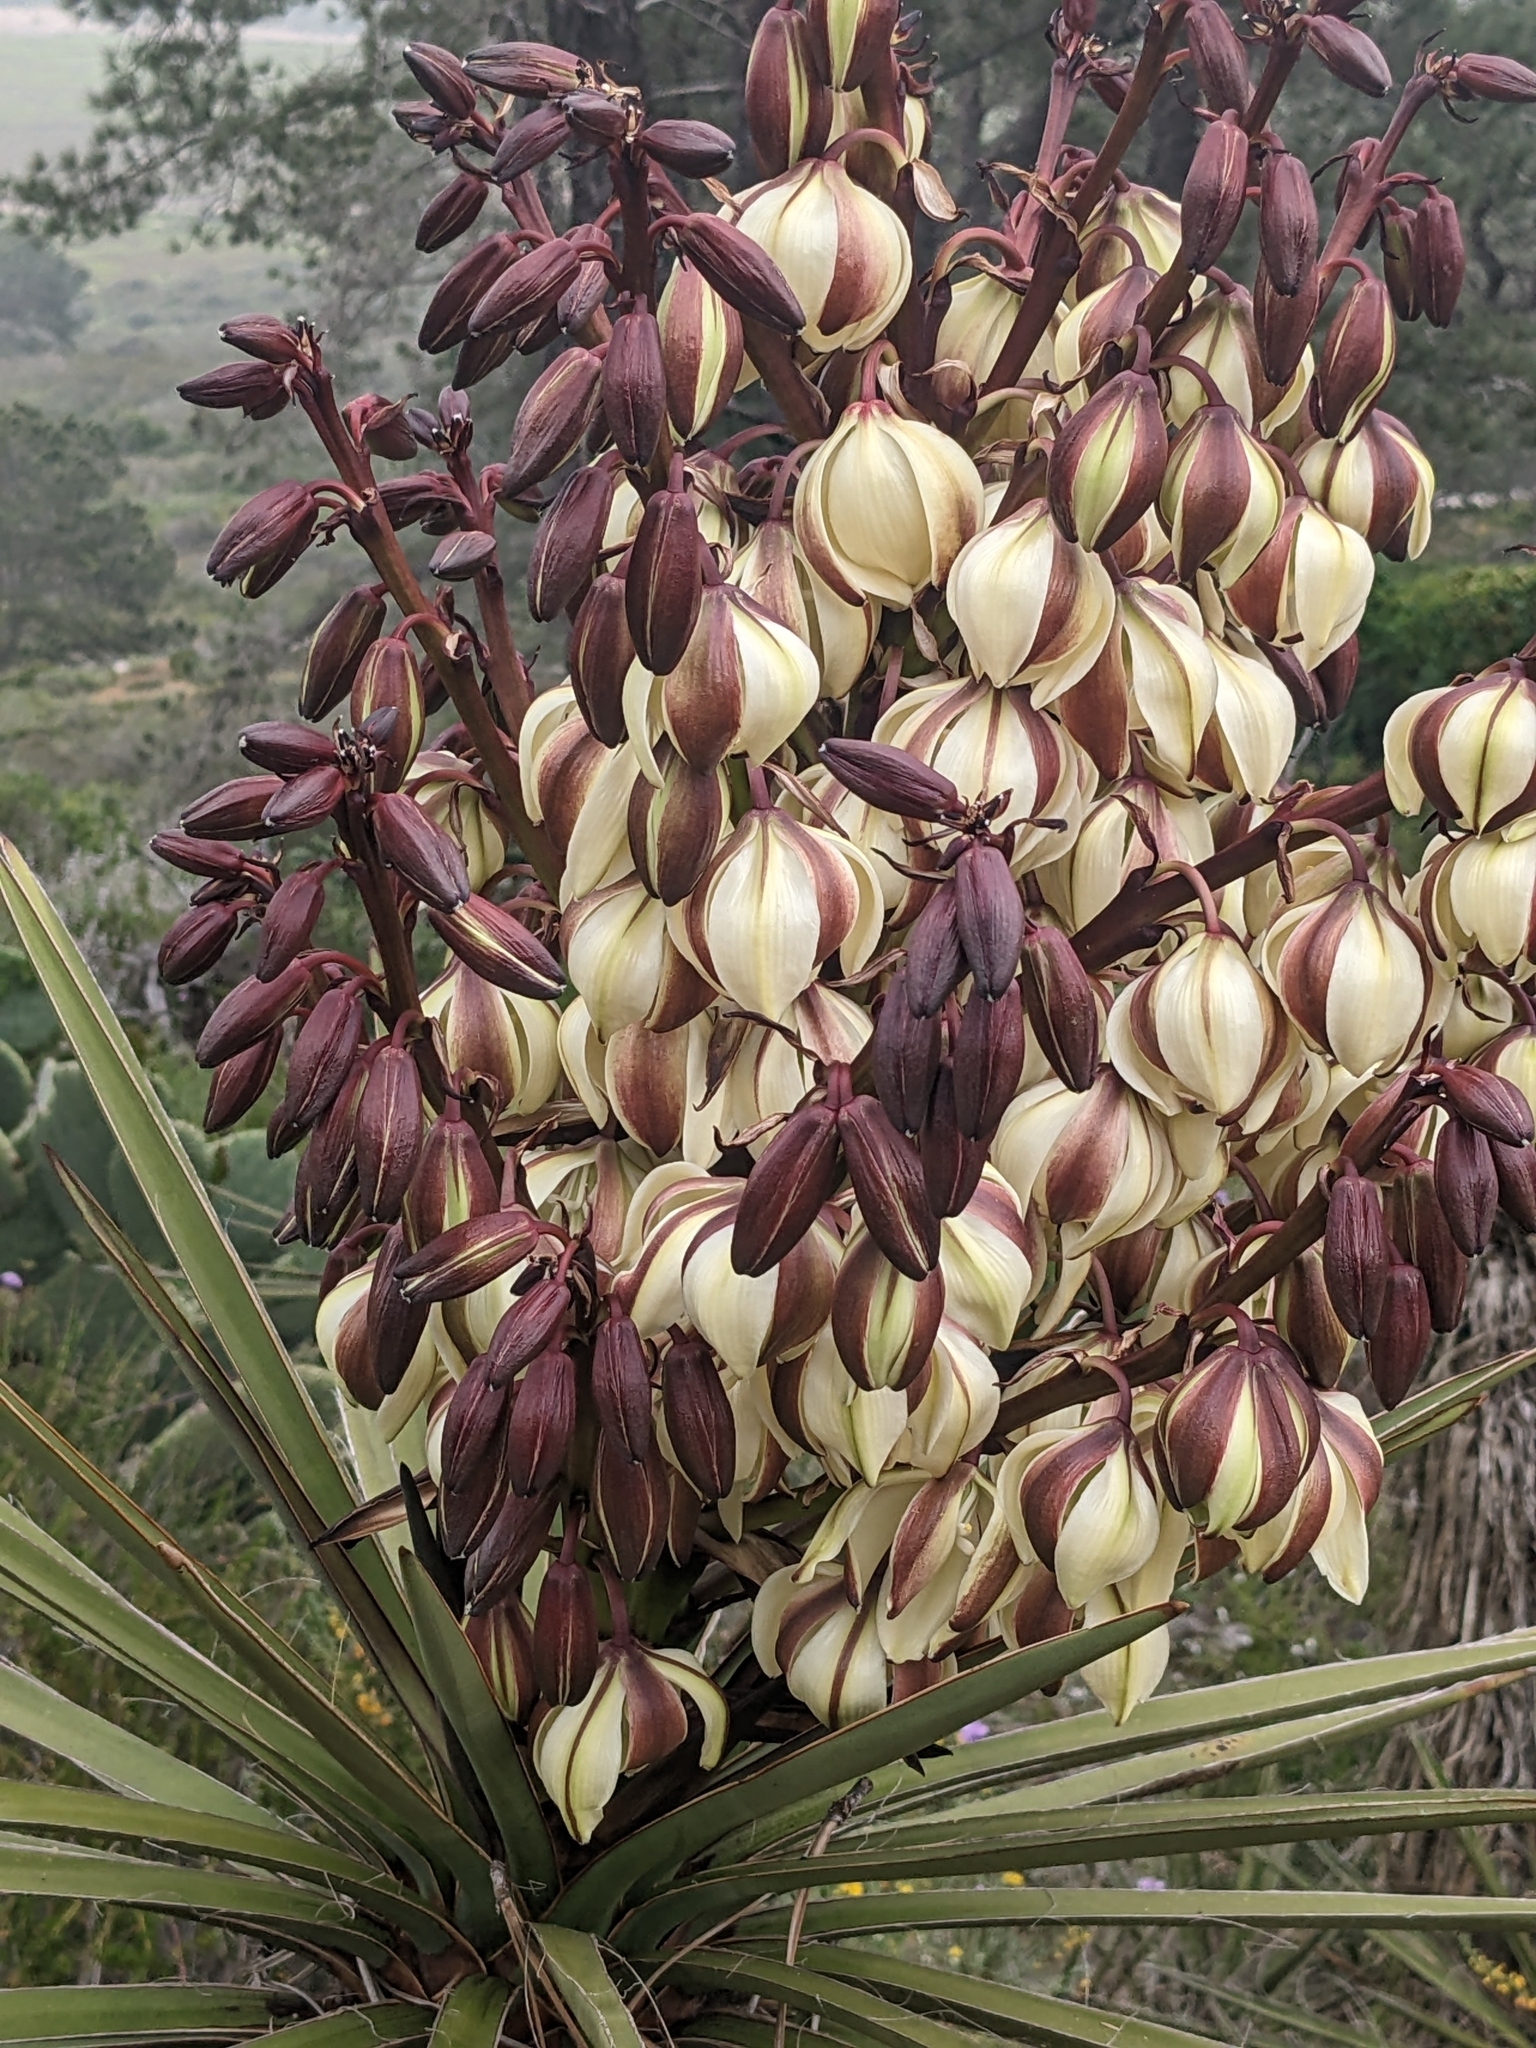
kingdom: Plantae
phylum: Tracheophyta
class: Liliopsida
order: Asparagales
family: Asparagaceae
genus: Yucca
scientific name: Yucca schidigera
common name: Mojave yucca
